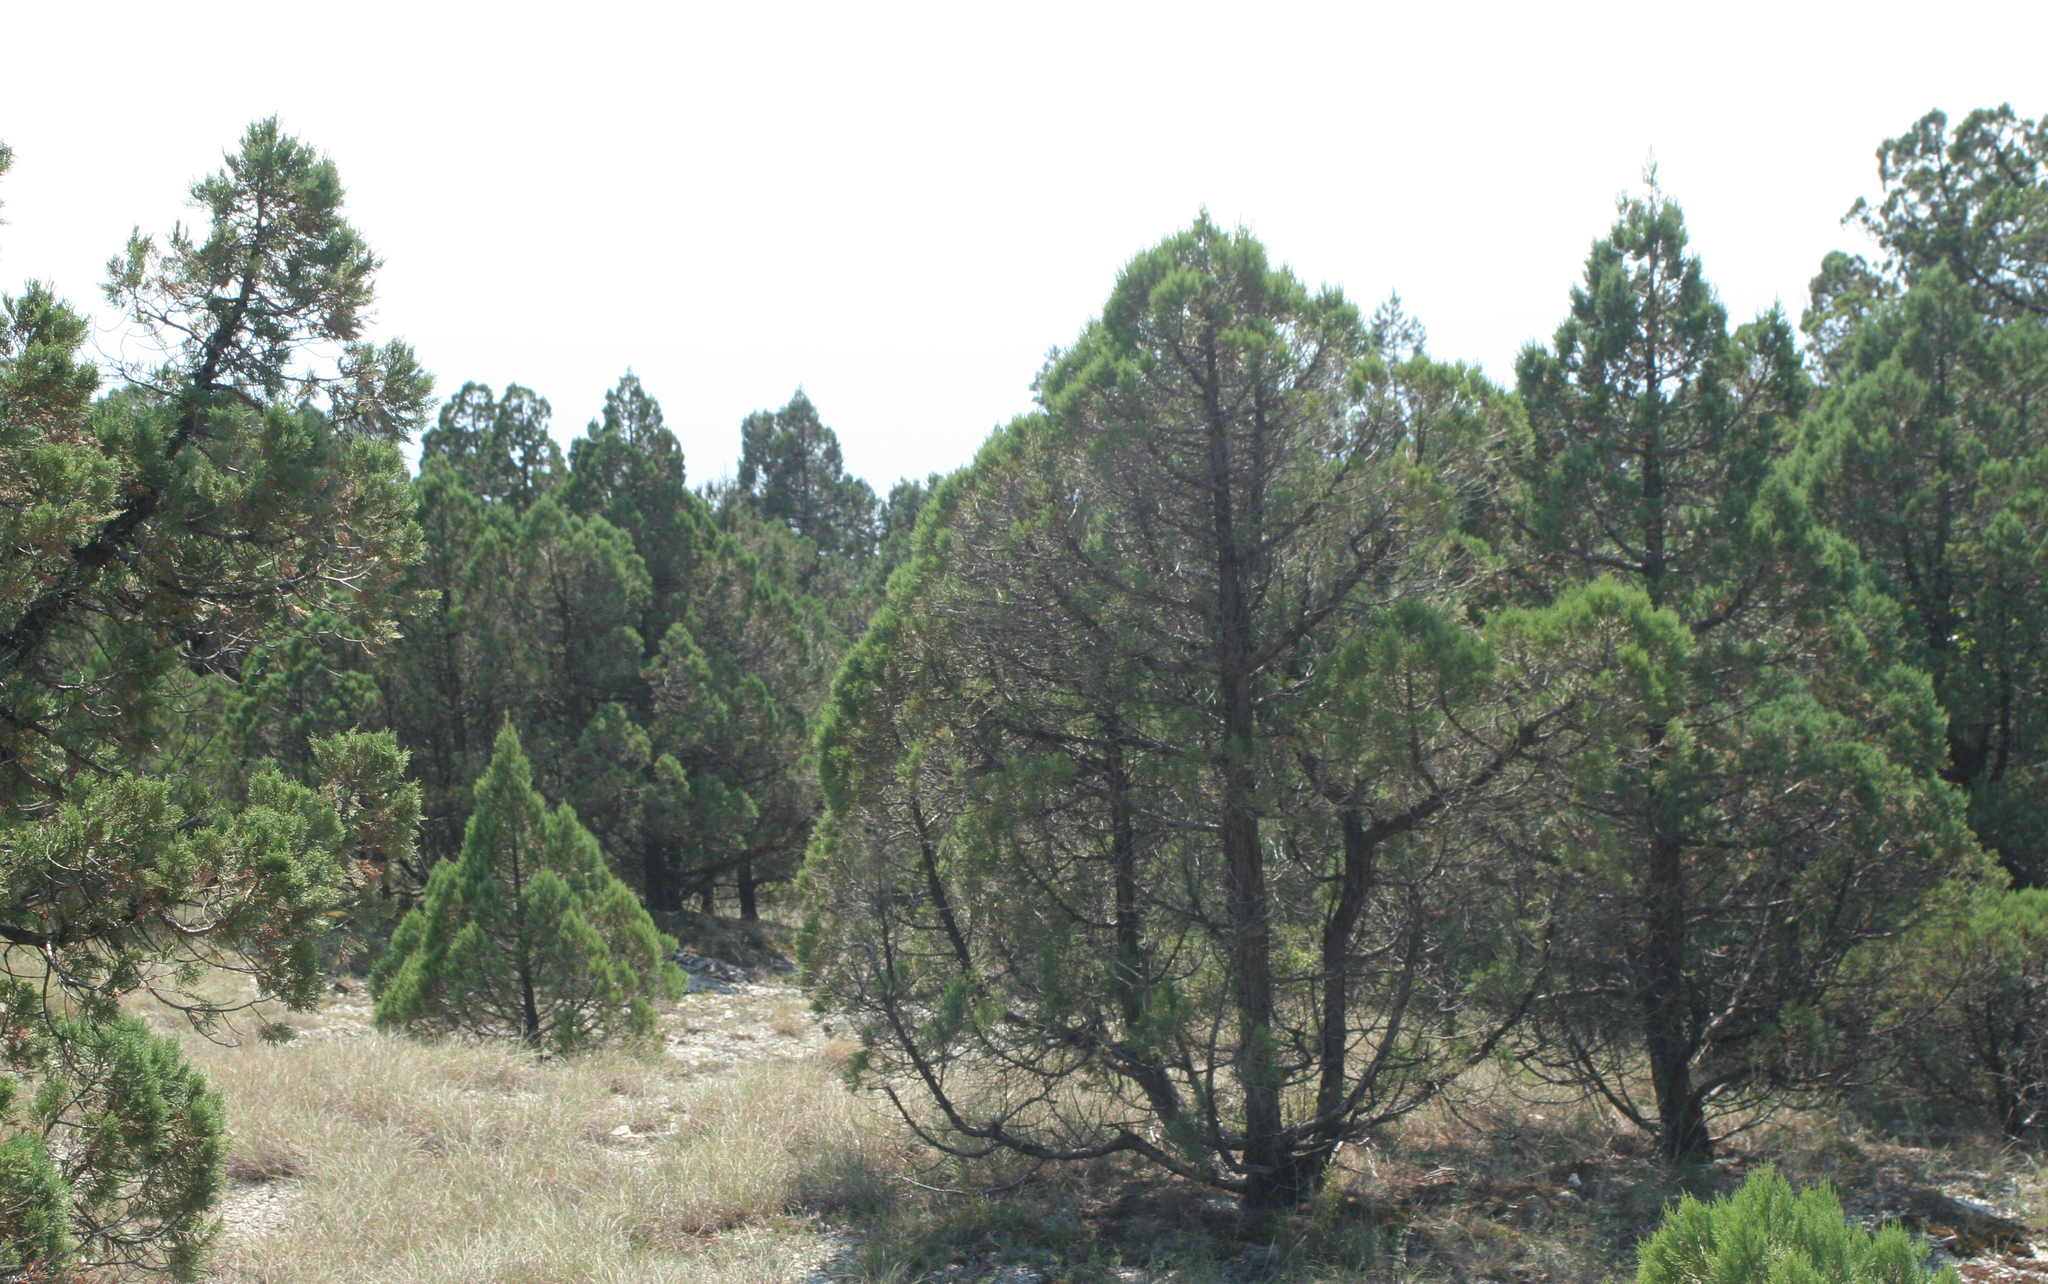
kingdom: Plantae
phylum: Tracheophyta
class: Pinopsida
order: Pinales
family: Cupressaceae
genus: Juniperus
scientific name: Juniperus excelsa
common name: Crimean juniper
